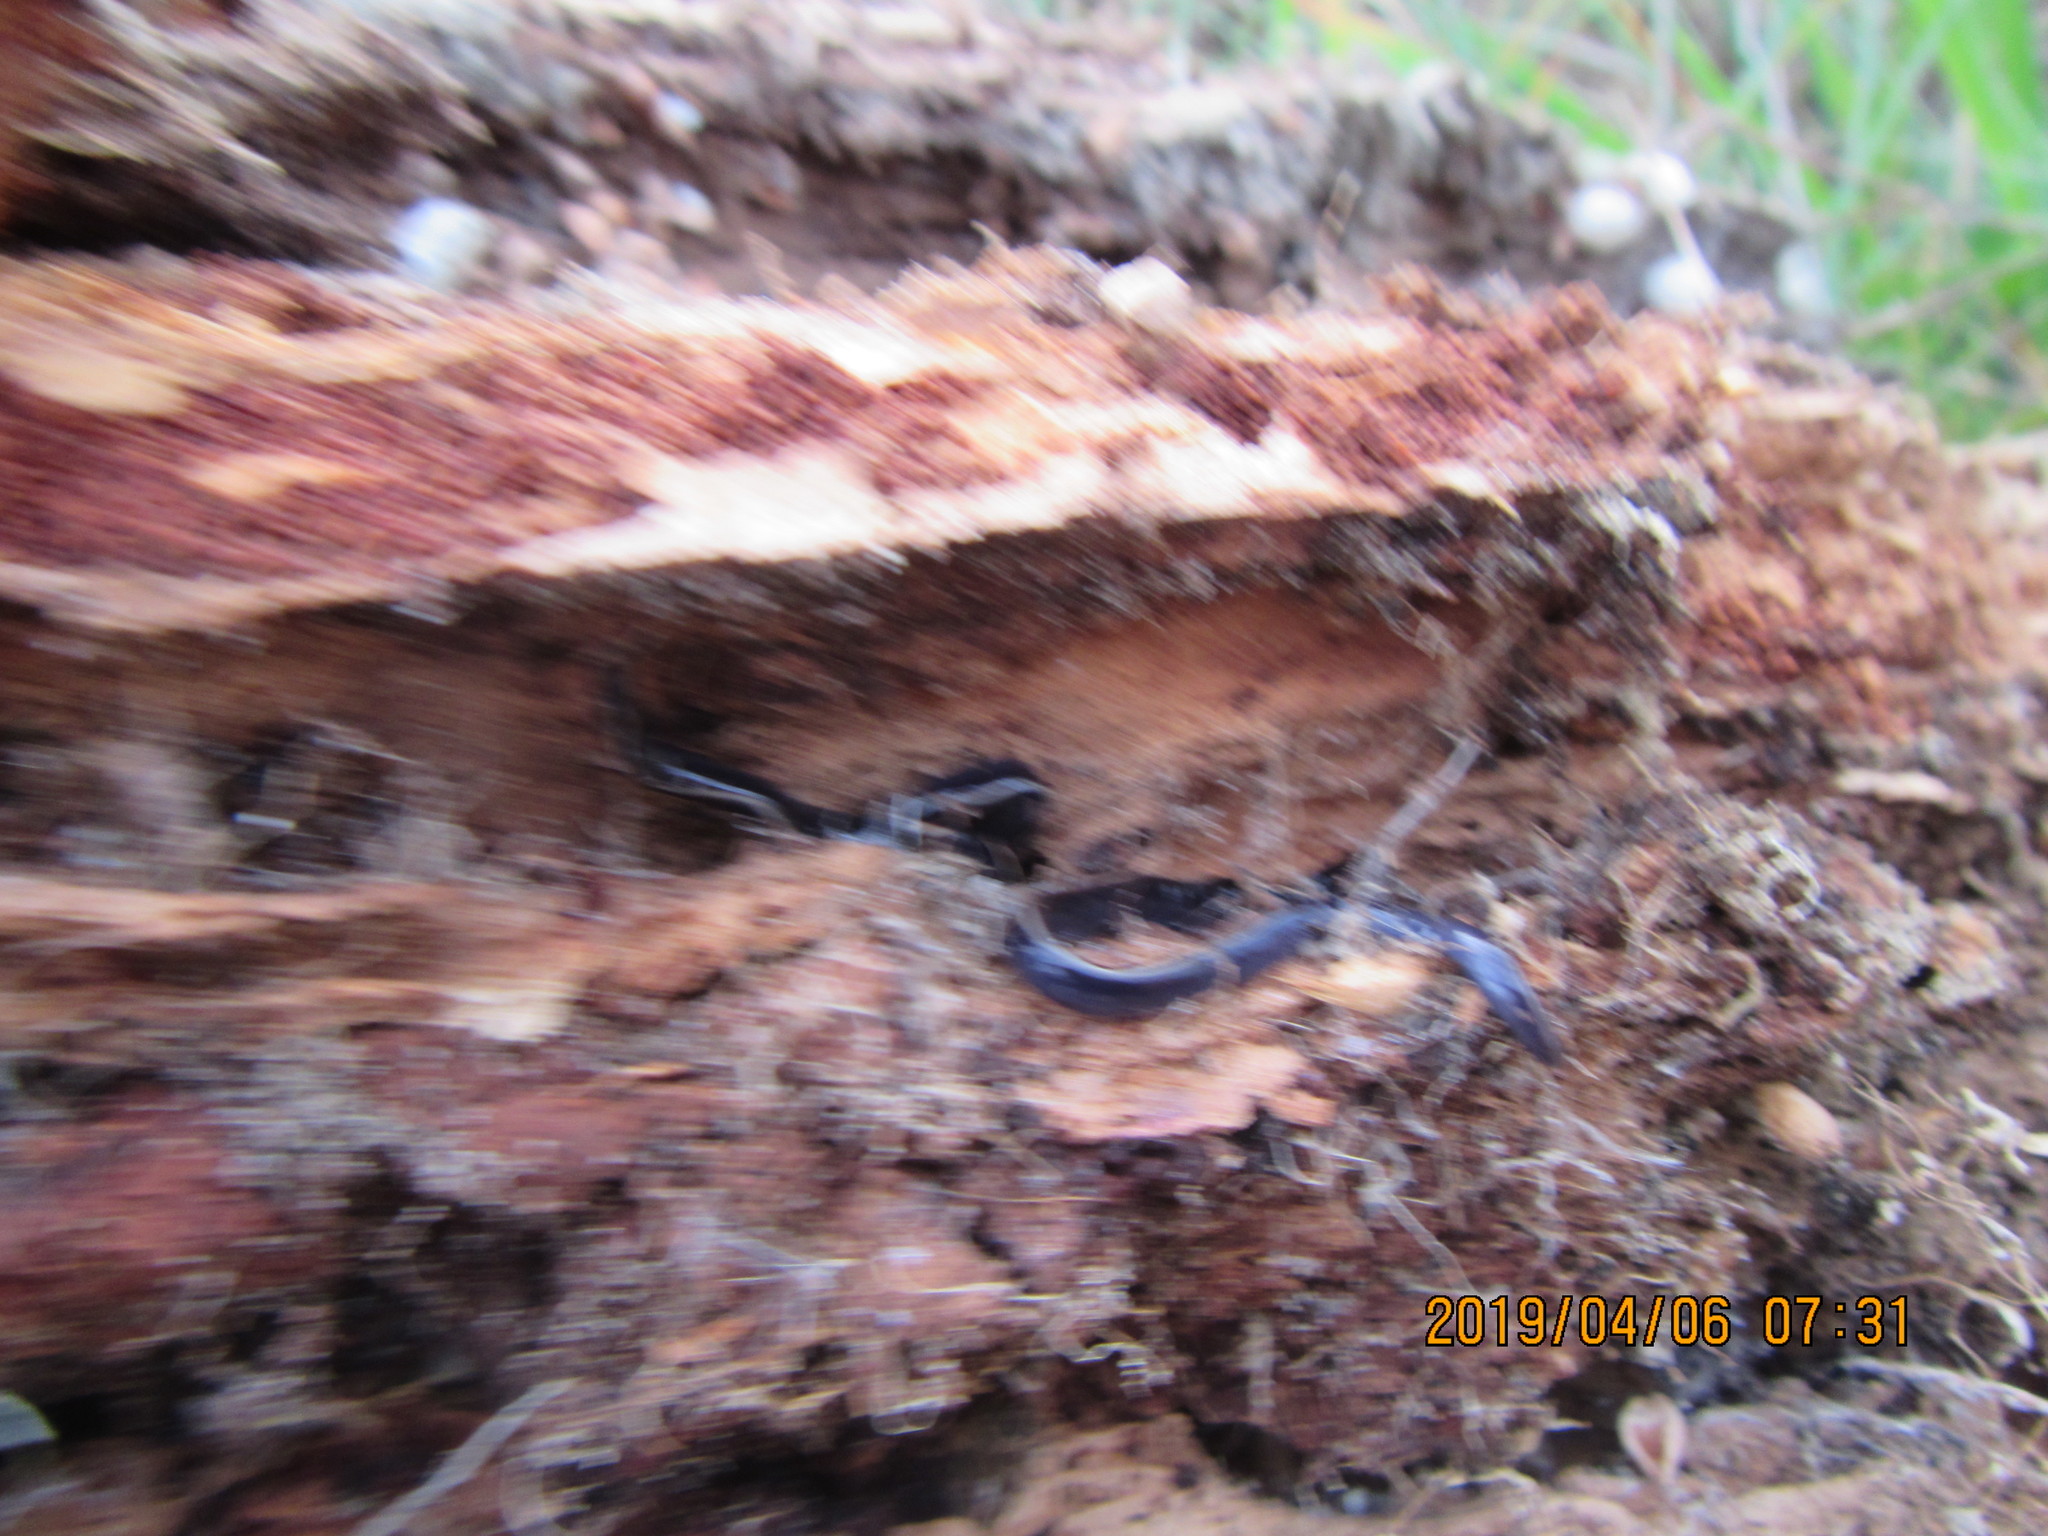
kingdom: Animalia
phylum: Platyhelminthes
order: Tricladida
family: Geoplanidae
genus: Caenoplana
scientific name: Caenoplana coerulea
